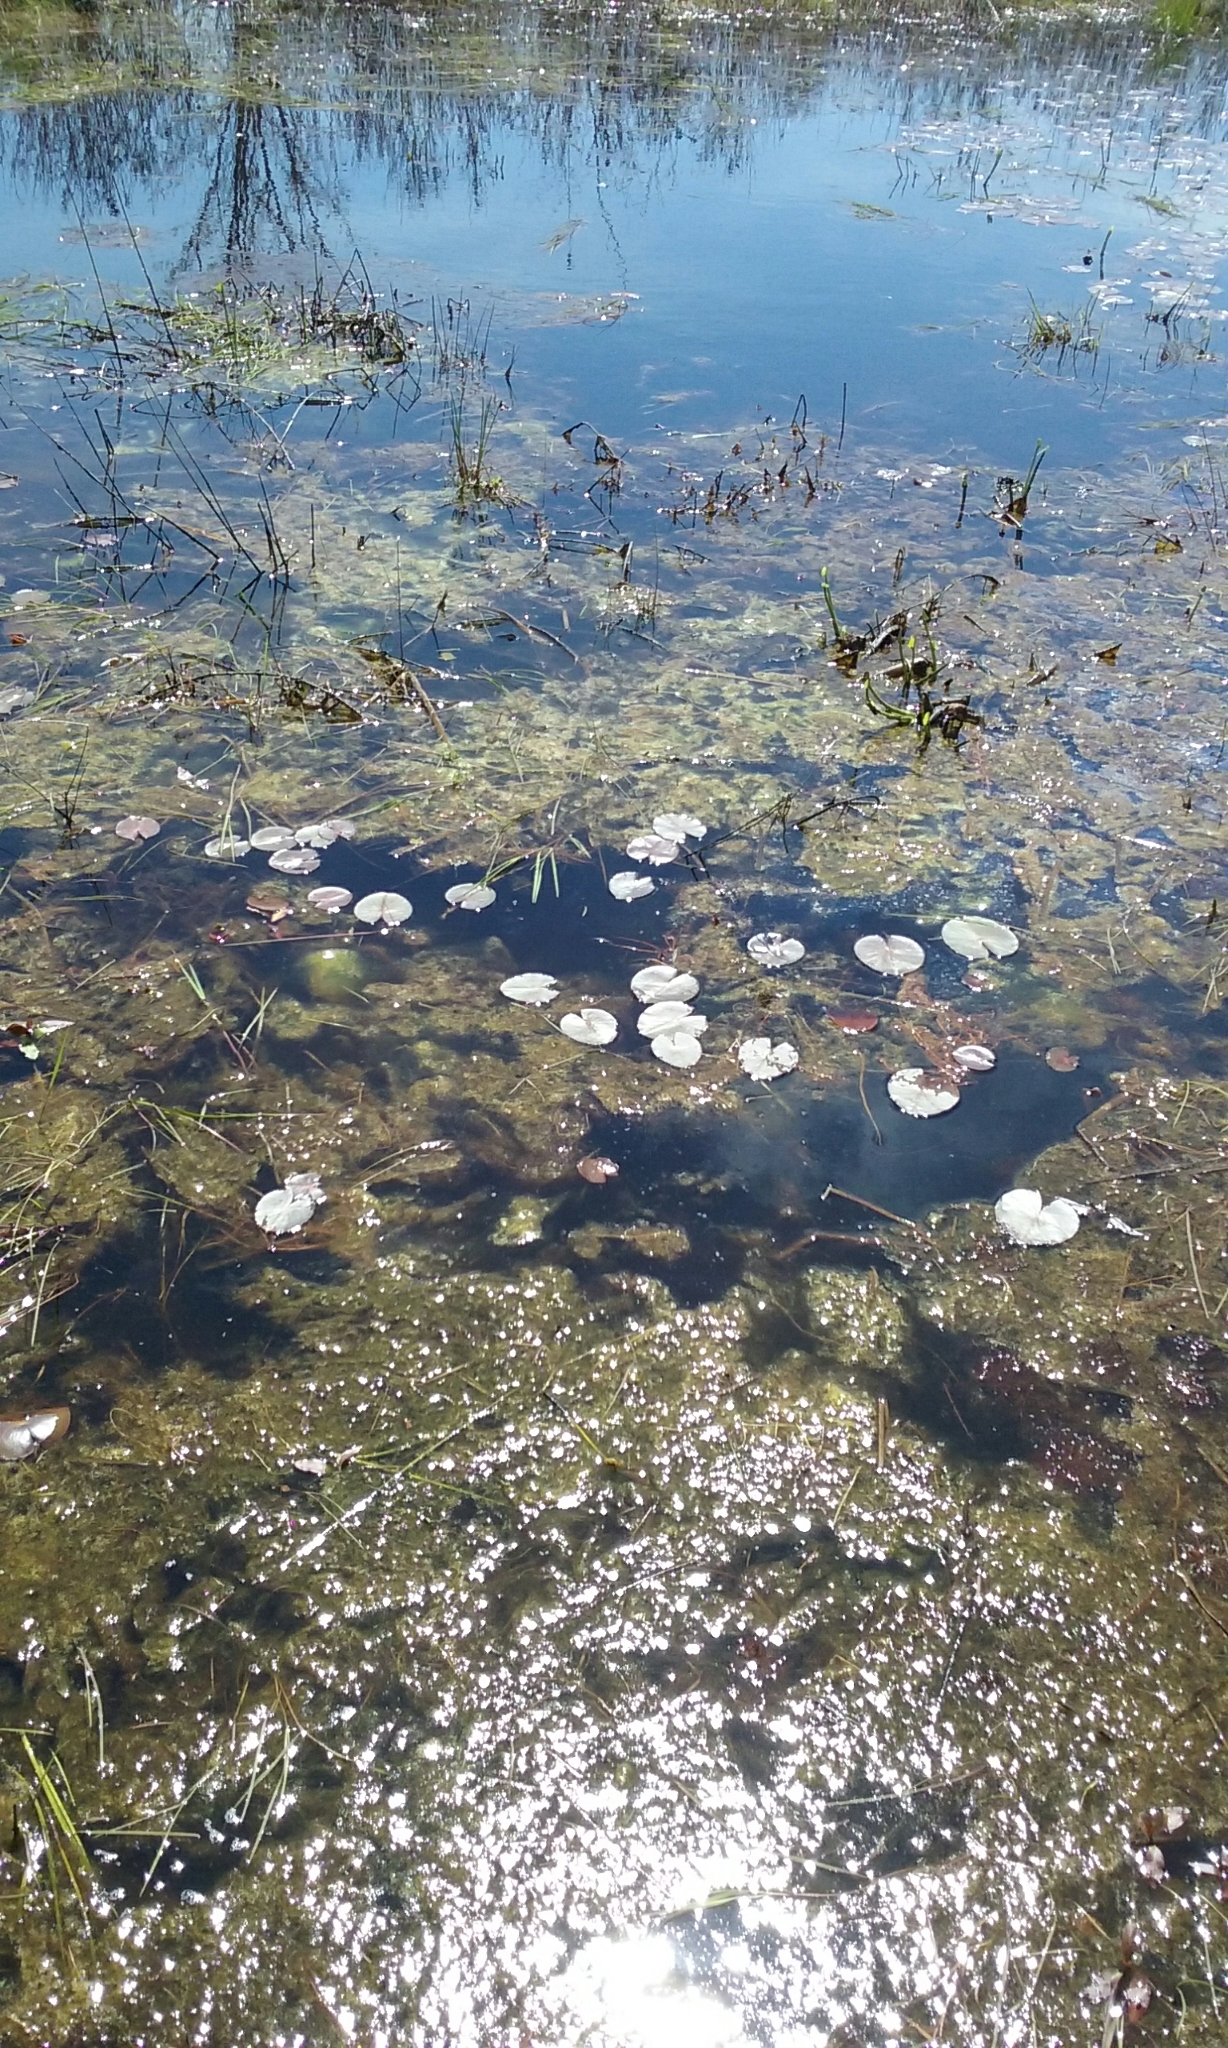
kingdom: Plantae
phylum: Tracheophyta
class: Magnoliopsida
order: Nymphaeales
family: Nymphaeaceae
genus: Nymphaea
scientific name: Nymphaea odorata
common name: Fragrant water-lily
